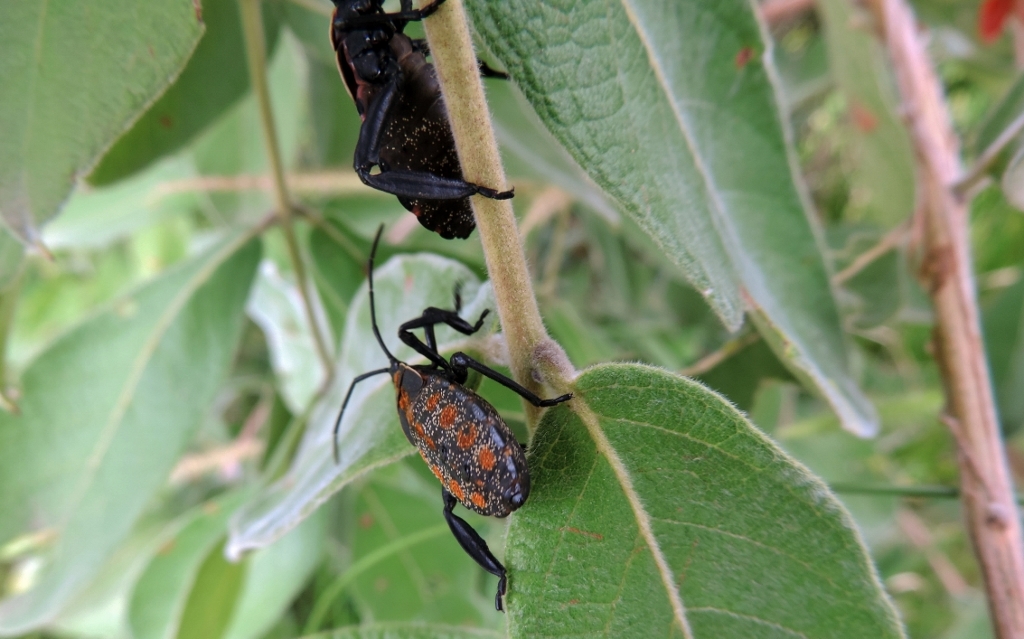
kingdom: Animalia
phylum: Arthropoda
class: Insecta
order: Hemiptera
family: Coreidae
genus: Petascelis
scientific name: Petascelis remipes
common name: Giant twig wilter
